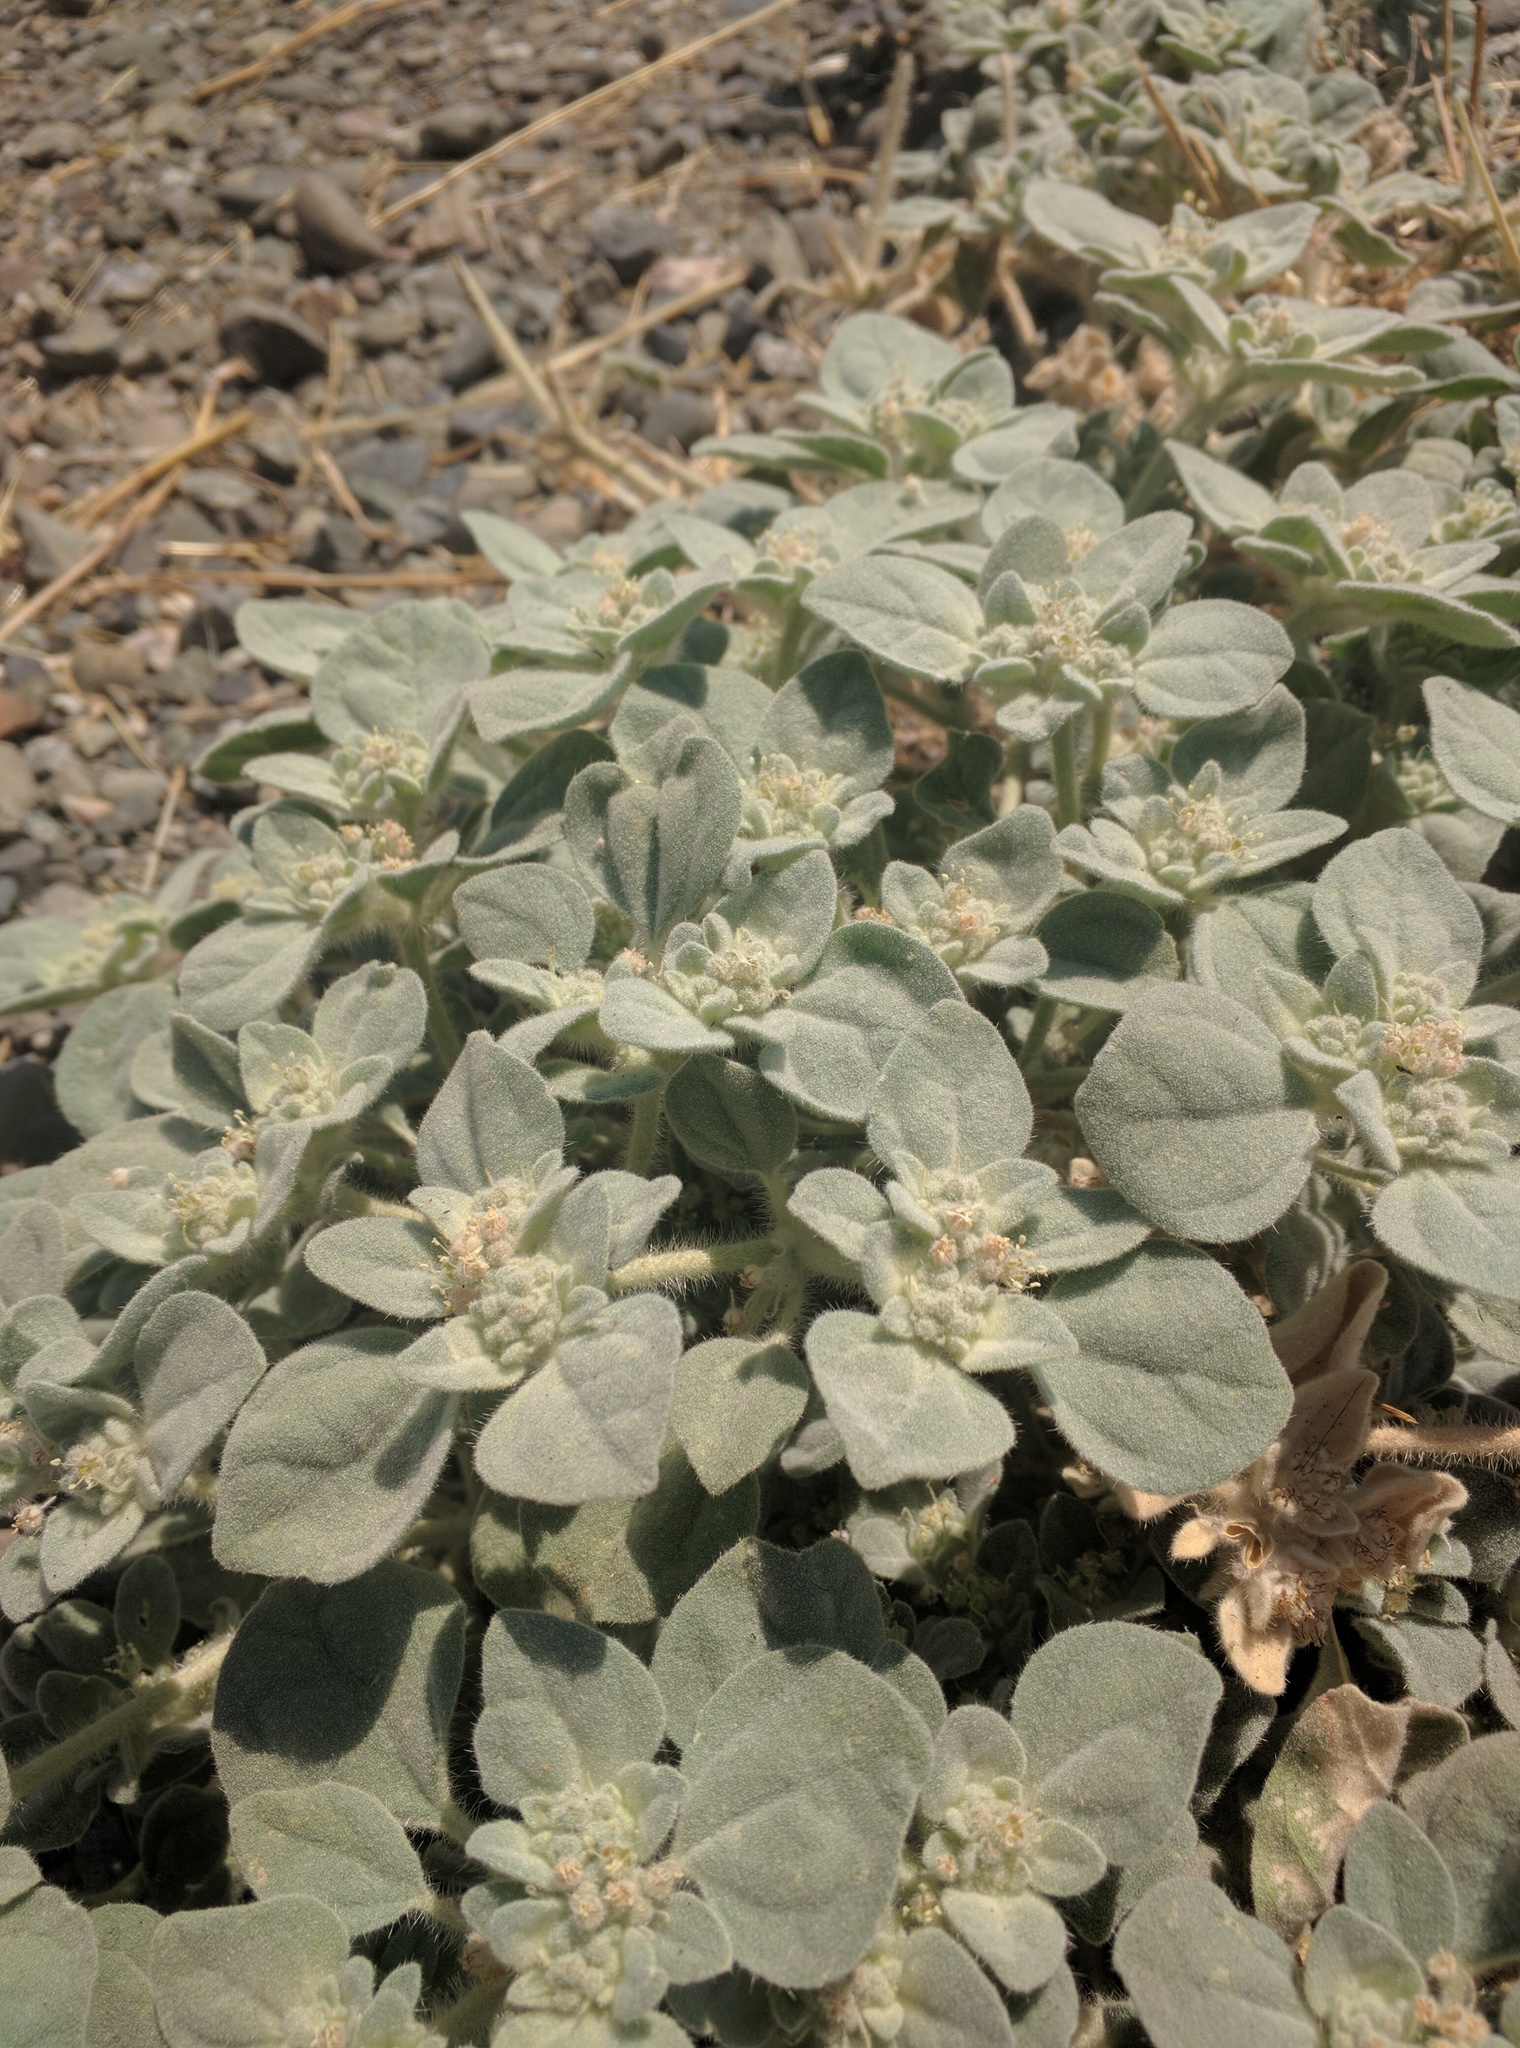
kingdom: Plantae
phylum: Tracheophyta
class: Magnoliopsida
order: Malpighiales
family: Euphorbiaceae
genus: Croton
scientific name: Croton setiger
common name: Dove weed
